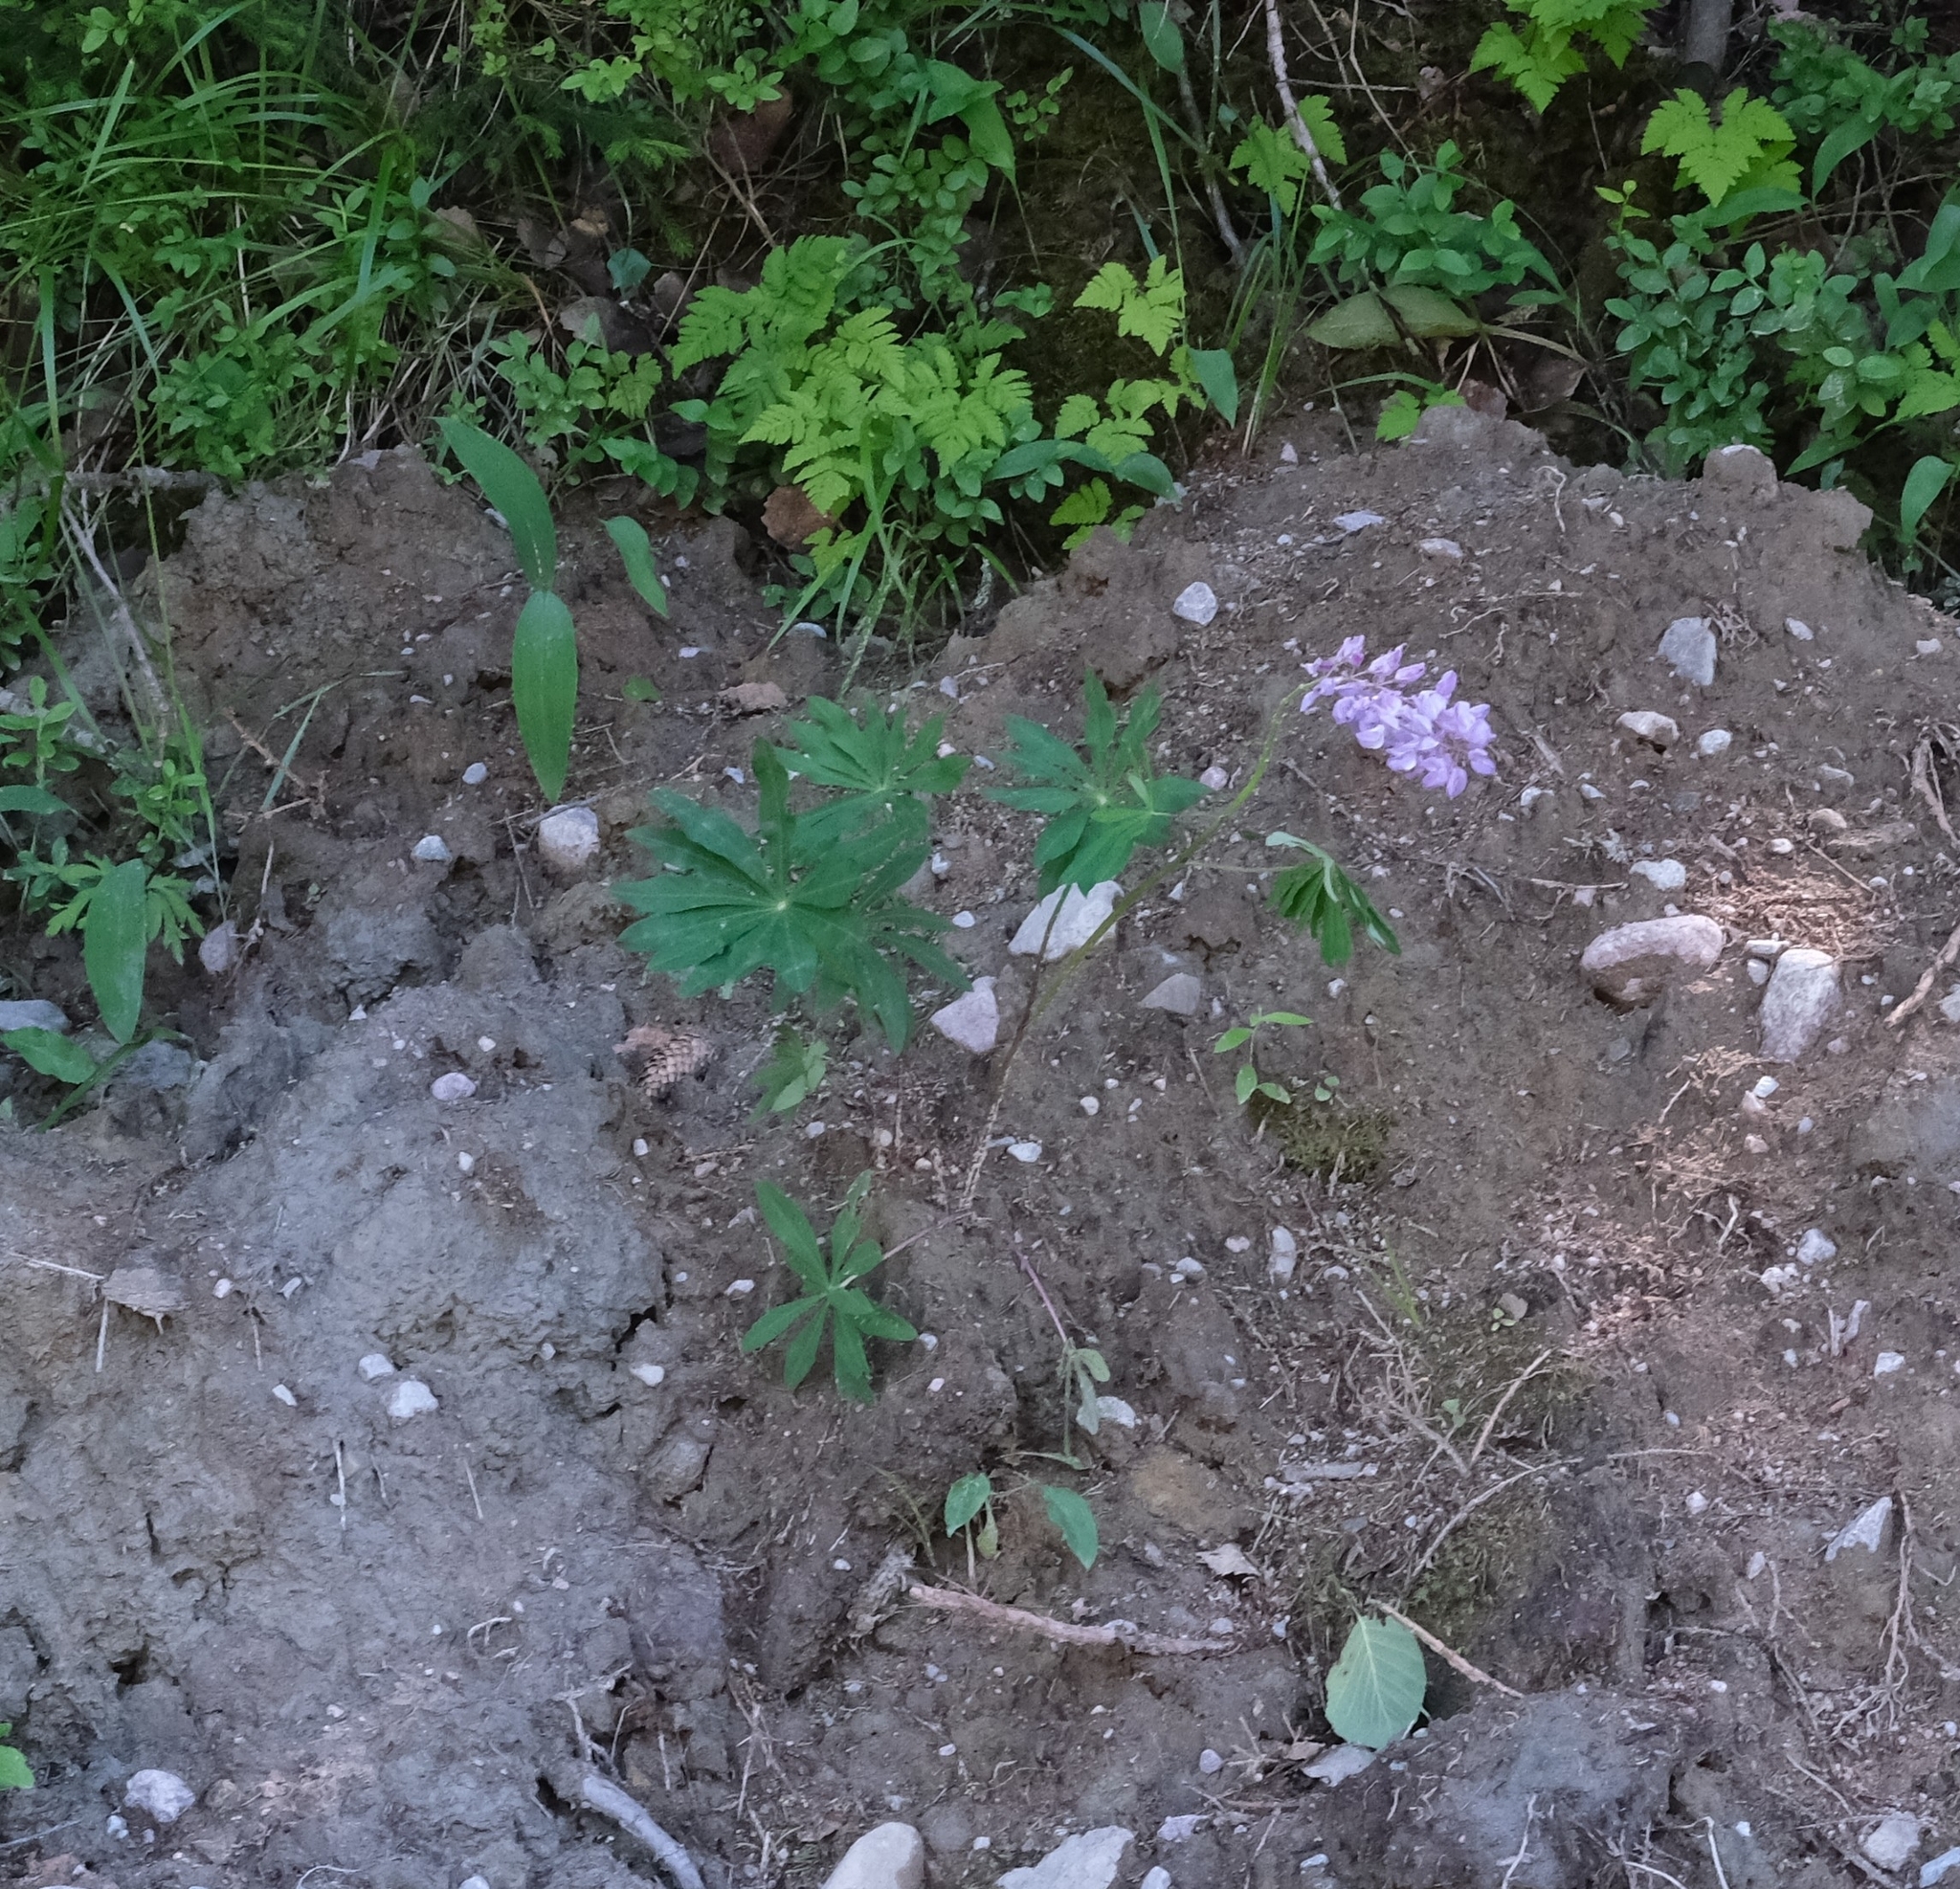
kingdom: Plantae
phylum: Tracheophyta
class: Magnoliopsida
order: Fabales
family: Fabaceae
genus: Lupinus
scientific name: Lupinus polyphyllus
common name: Garden lupin
